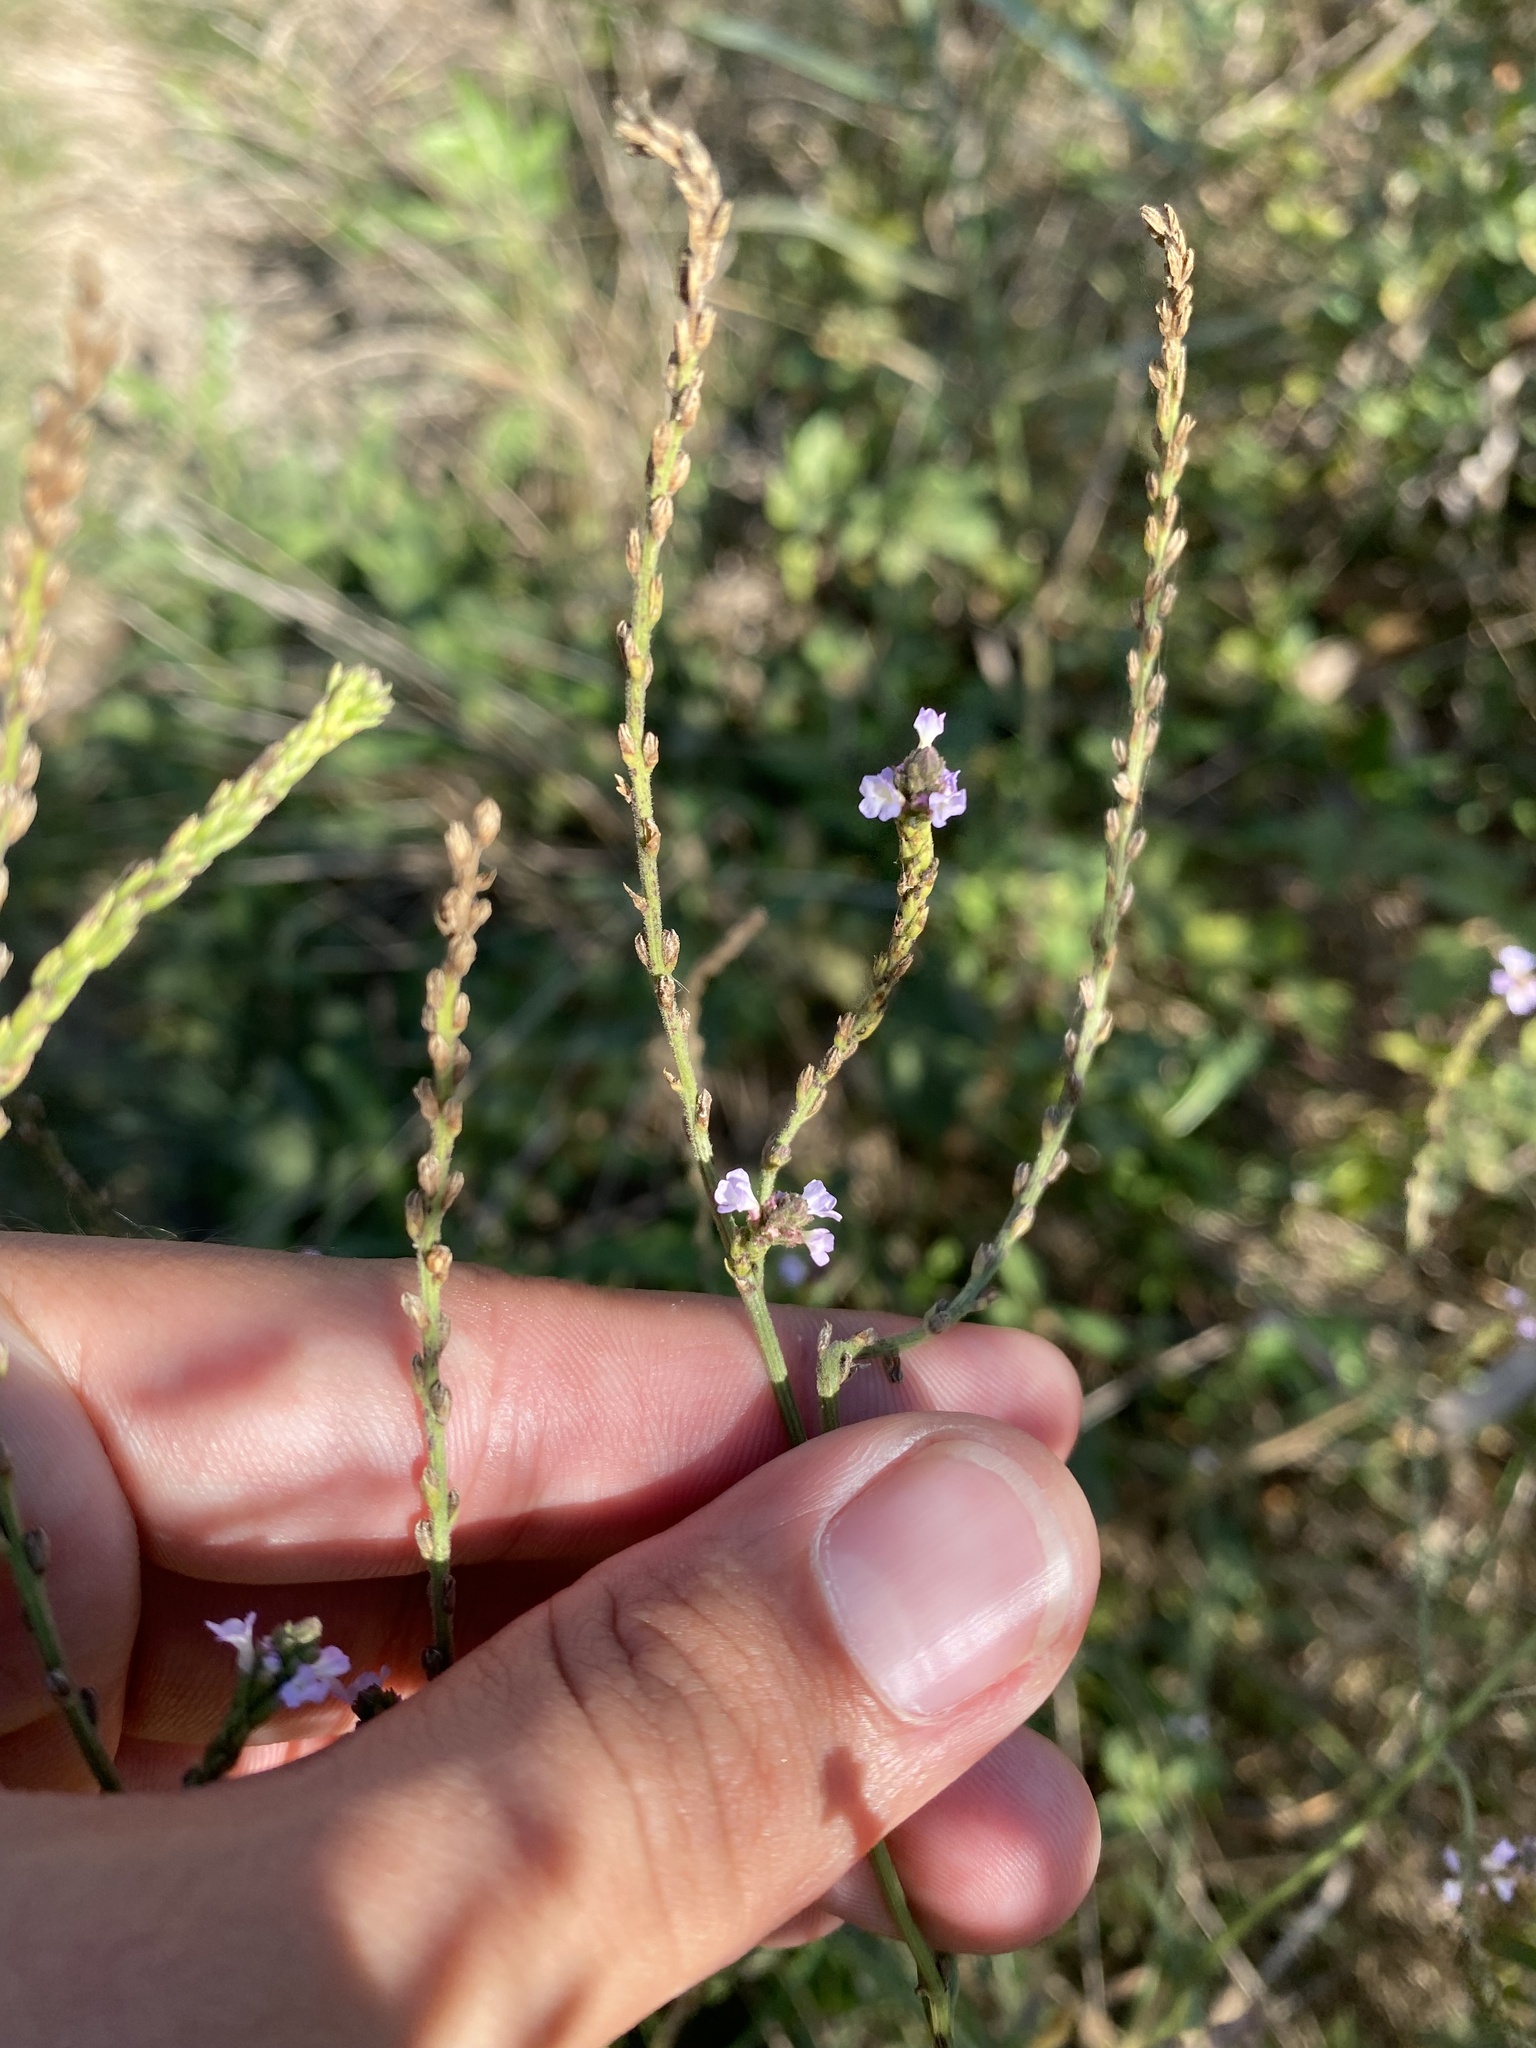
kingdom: Plantae
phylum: Tracheophyta
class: Magnoliopsida
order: Lamiales
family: Verbenaceae
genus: Verbena
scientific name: Verbena officinalis
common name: Vervain
